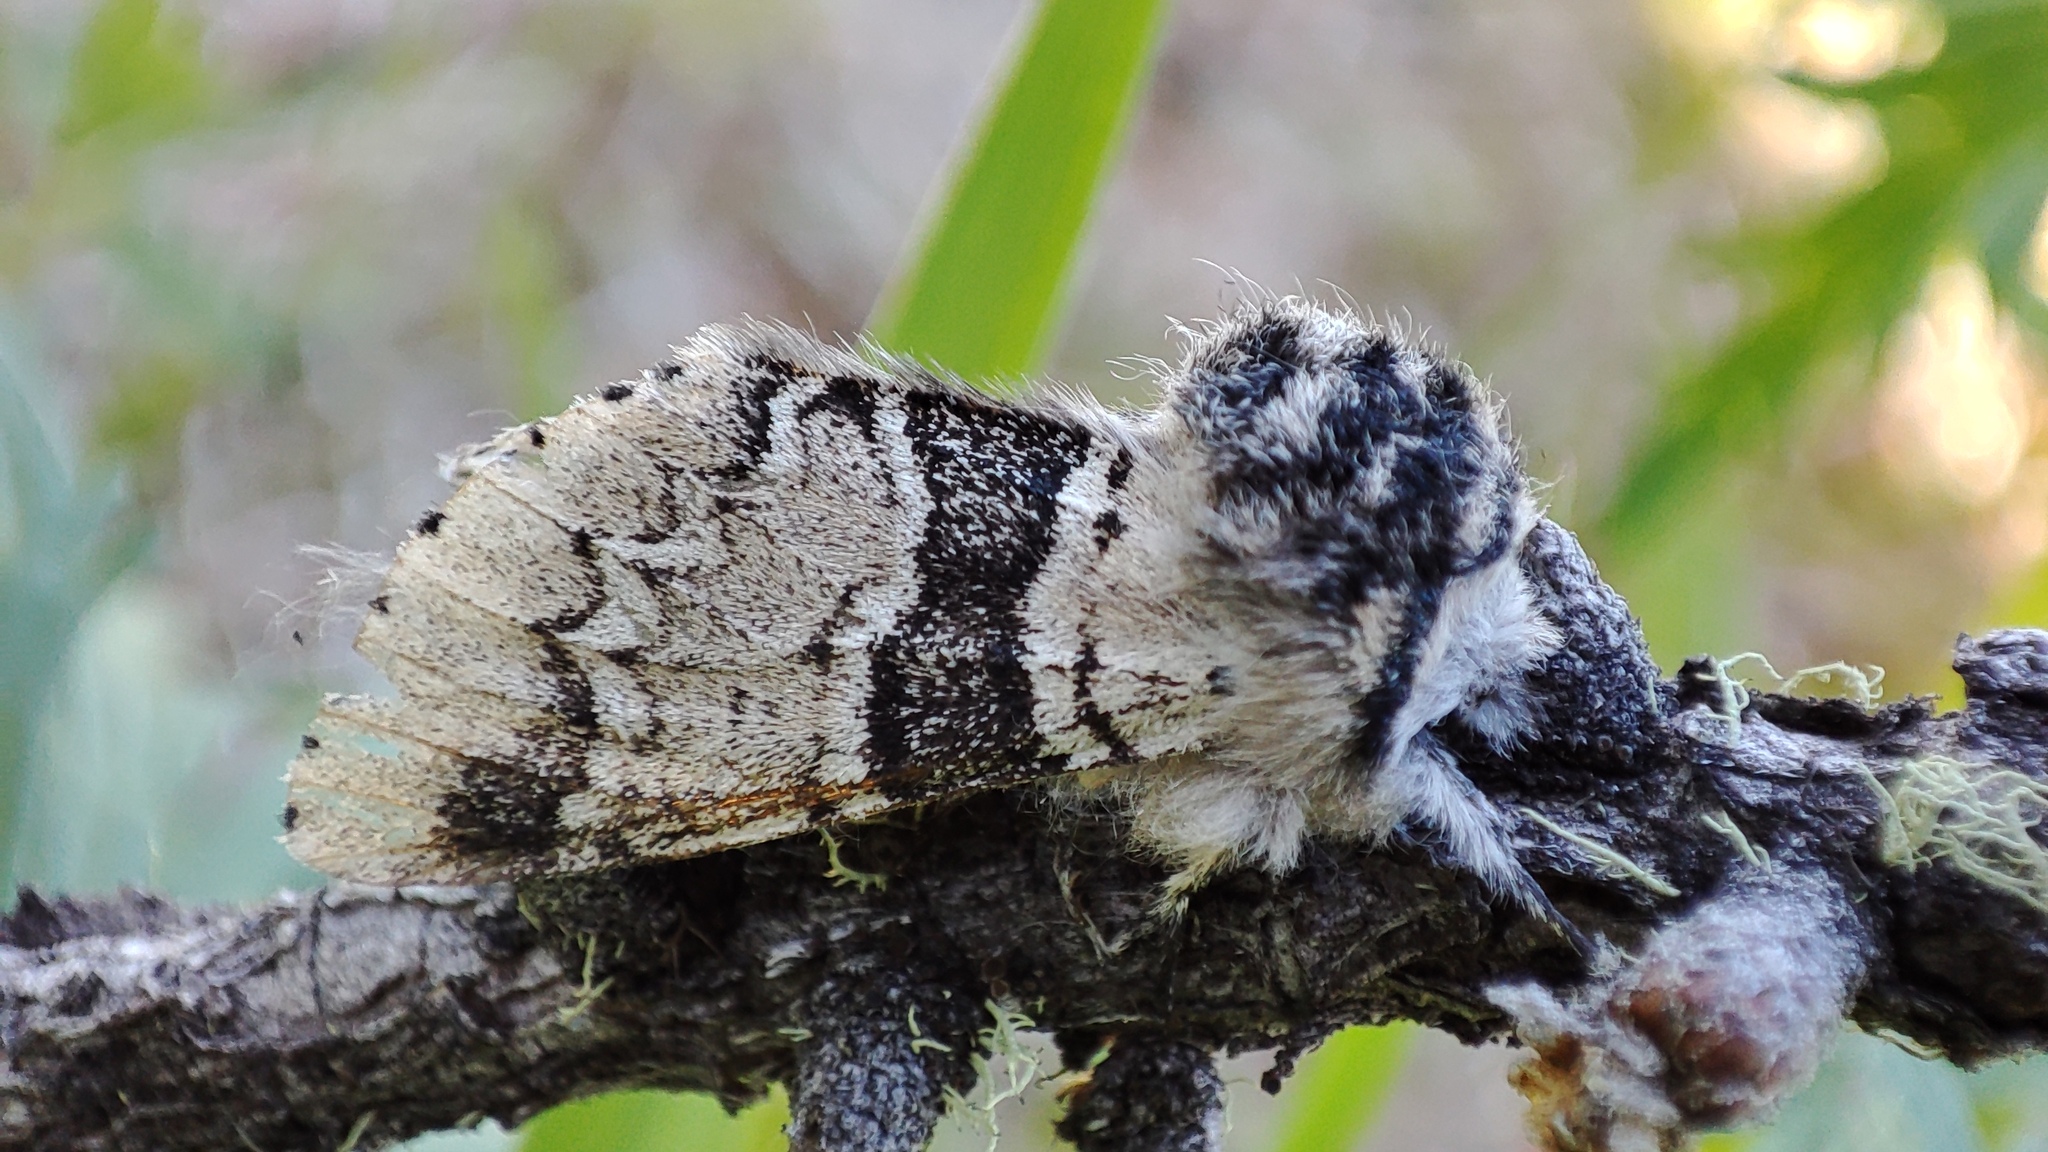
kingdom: Animalia
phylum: Arthropoda
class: Insecta
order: Lepidoptera
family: Notodontidae
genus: Furcula
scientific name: Furcula aeruginosa
